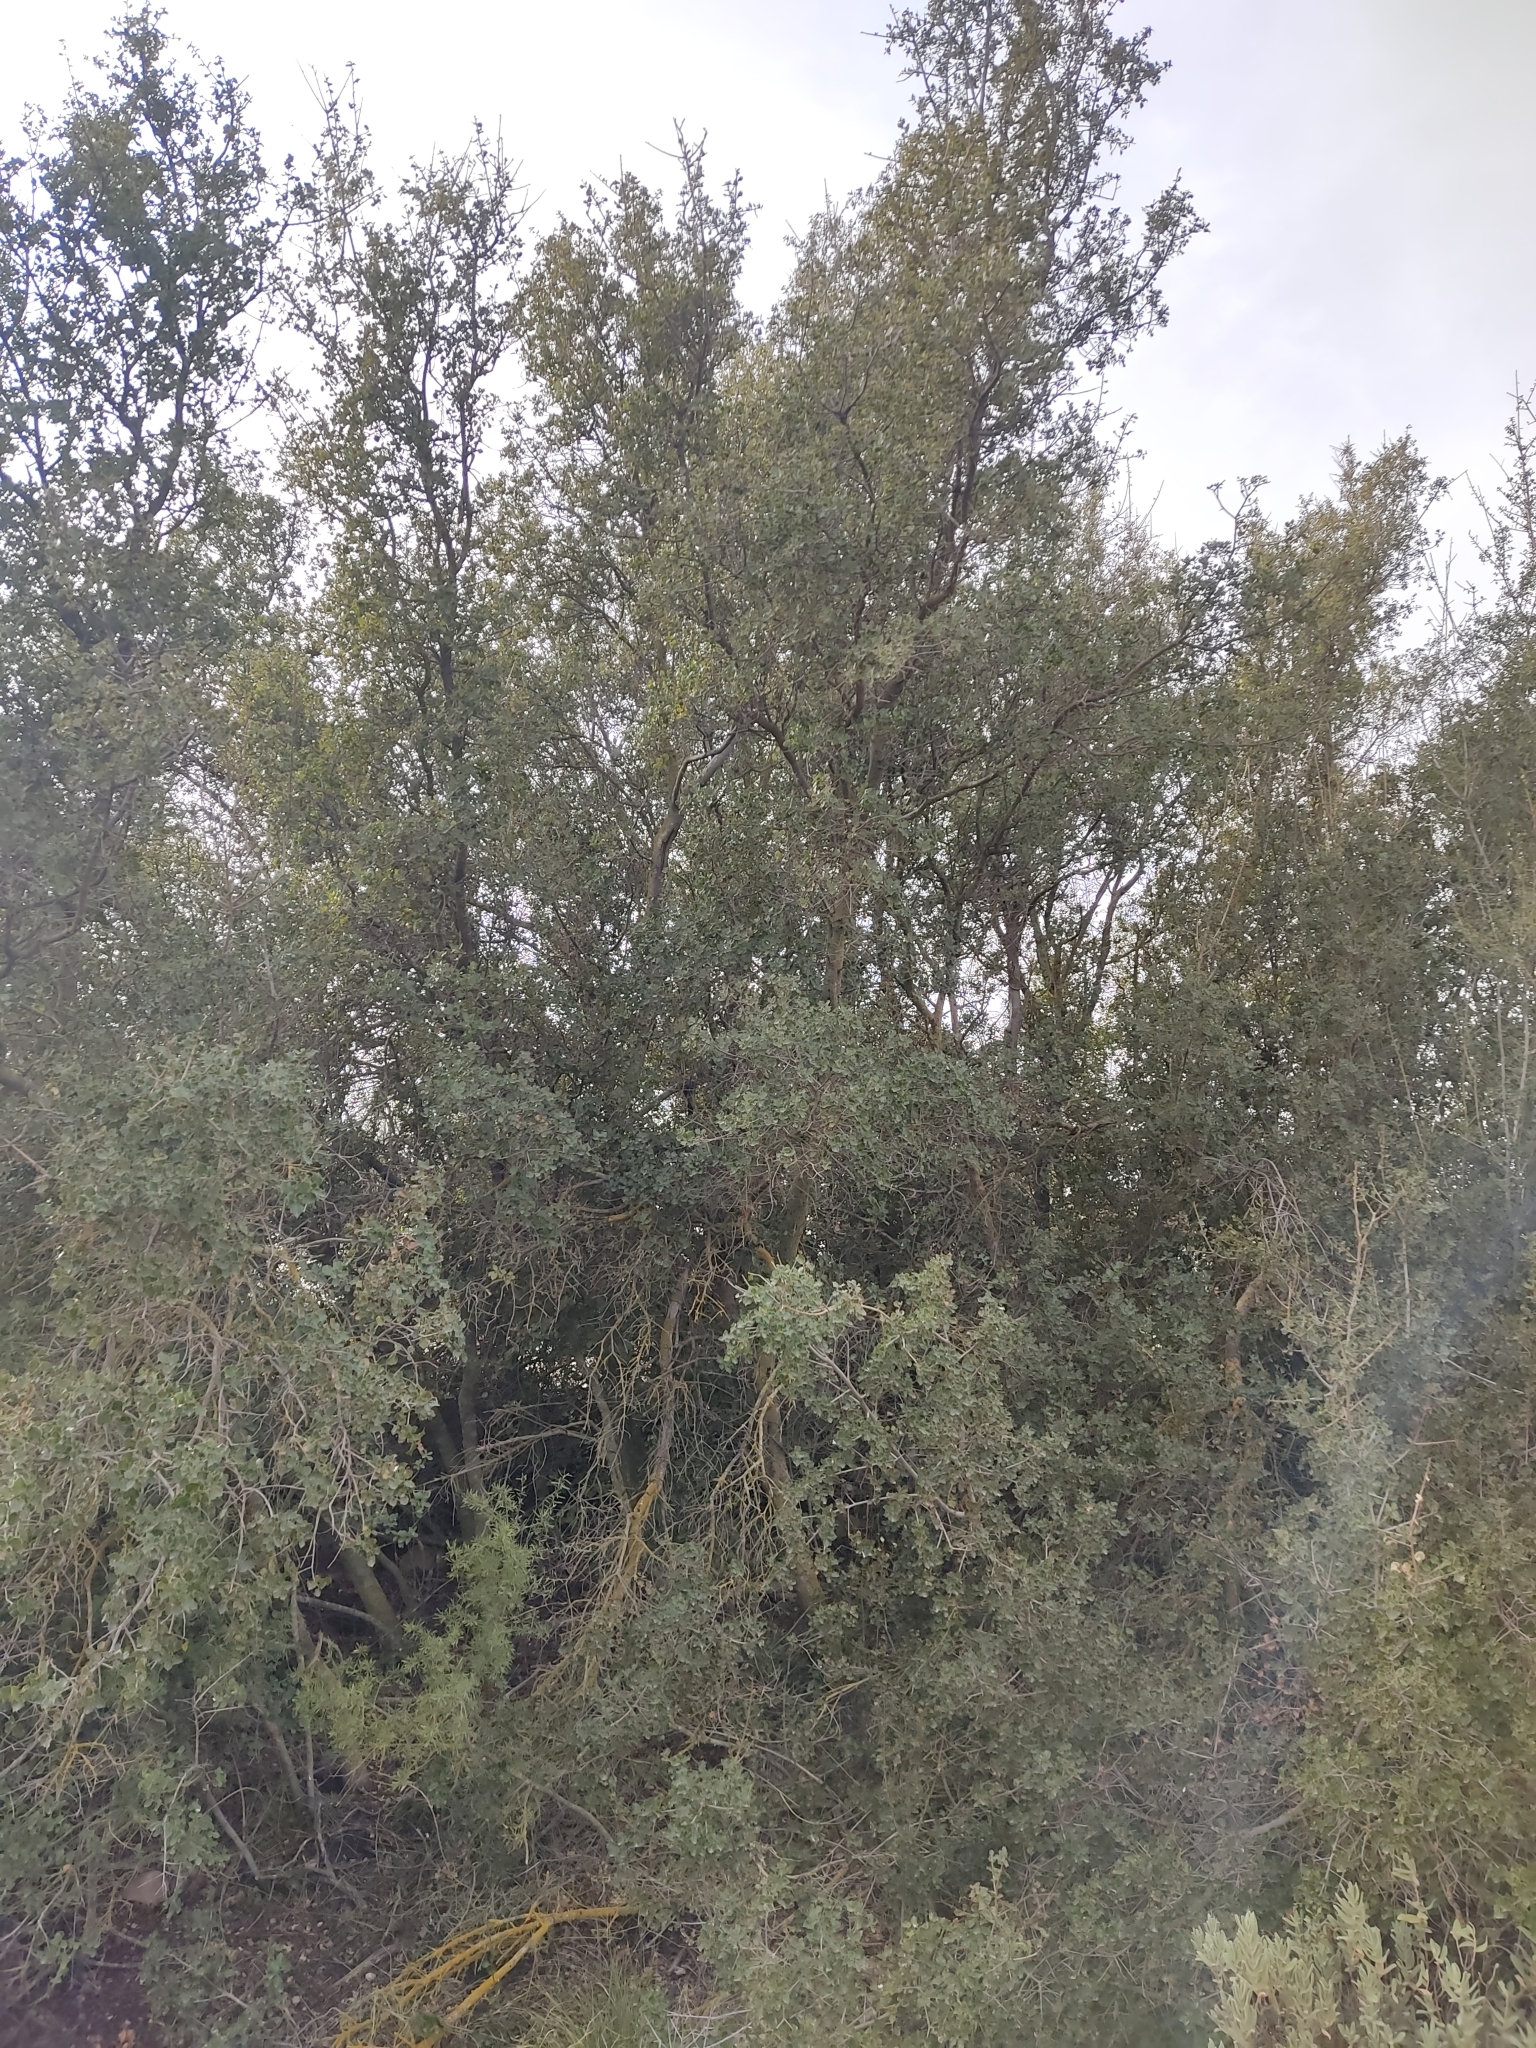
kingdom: Plantae
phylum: Tracheophyta
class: Magnoliopsida
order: Fagales
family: Fagaceae
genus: Quercus
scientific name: Quercus coccifera
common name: Kermes oak
